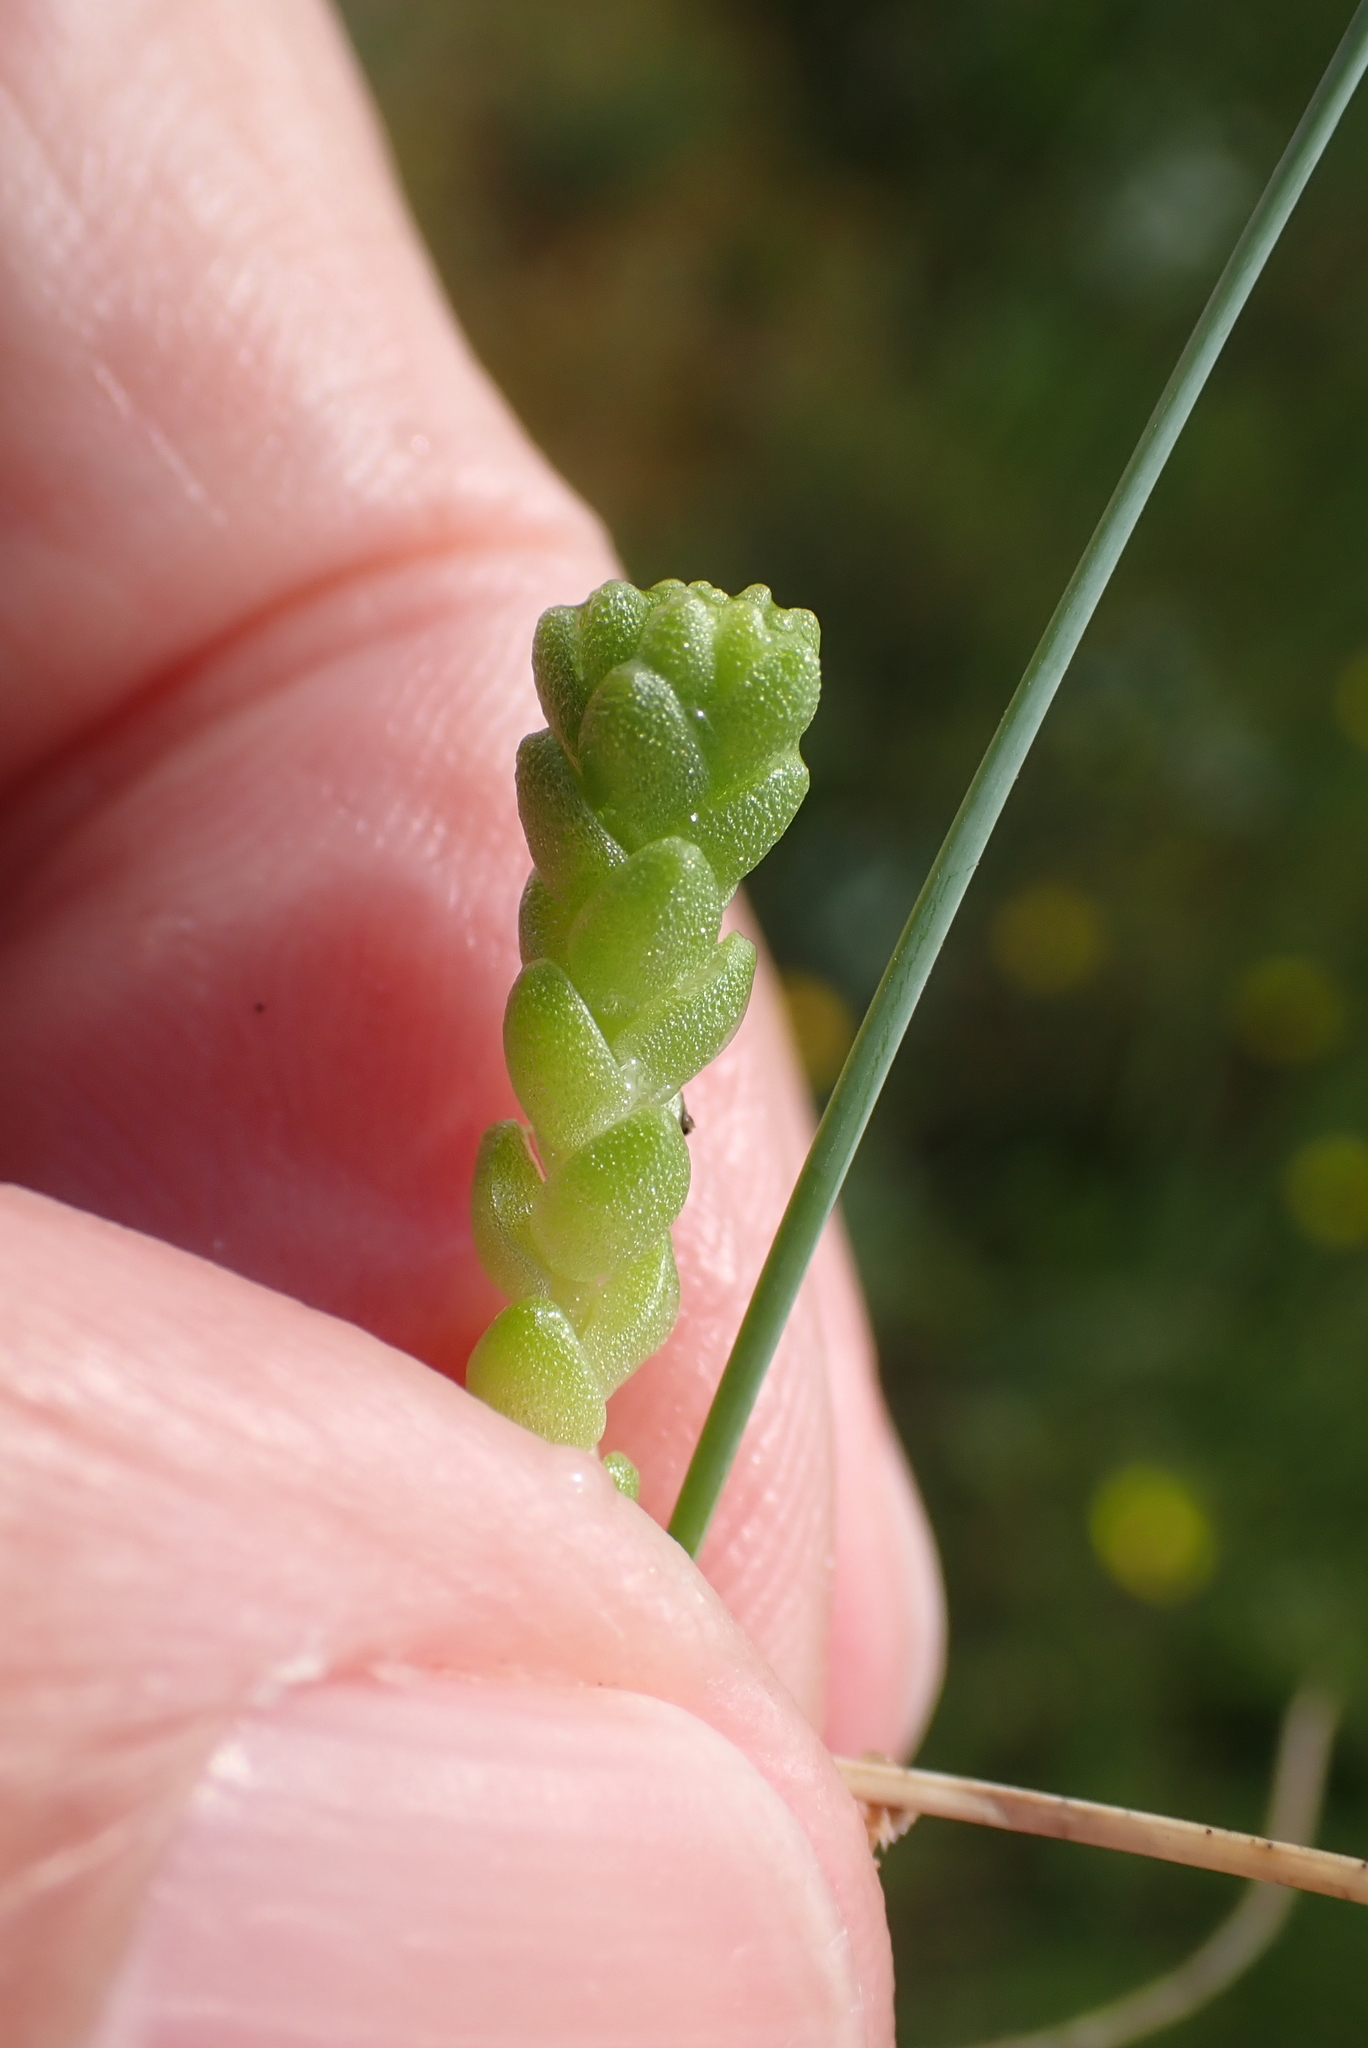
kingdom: Plantae
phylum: Tracheophyta
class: Magnoliopsida
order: Saxifragales
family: Crassulaceae
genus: Sedum
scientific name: Sedum acre
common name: Biting stonecrop
